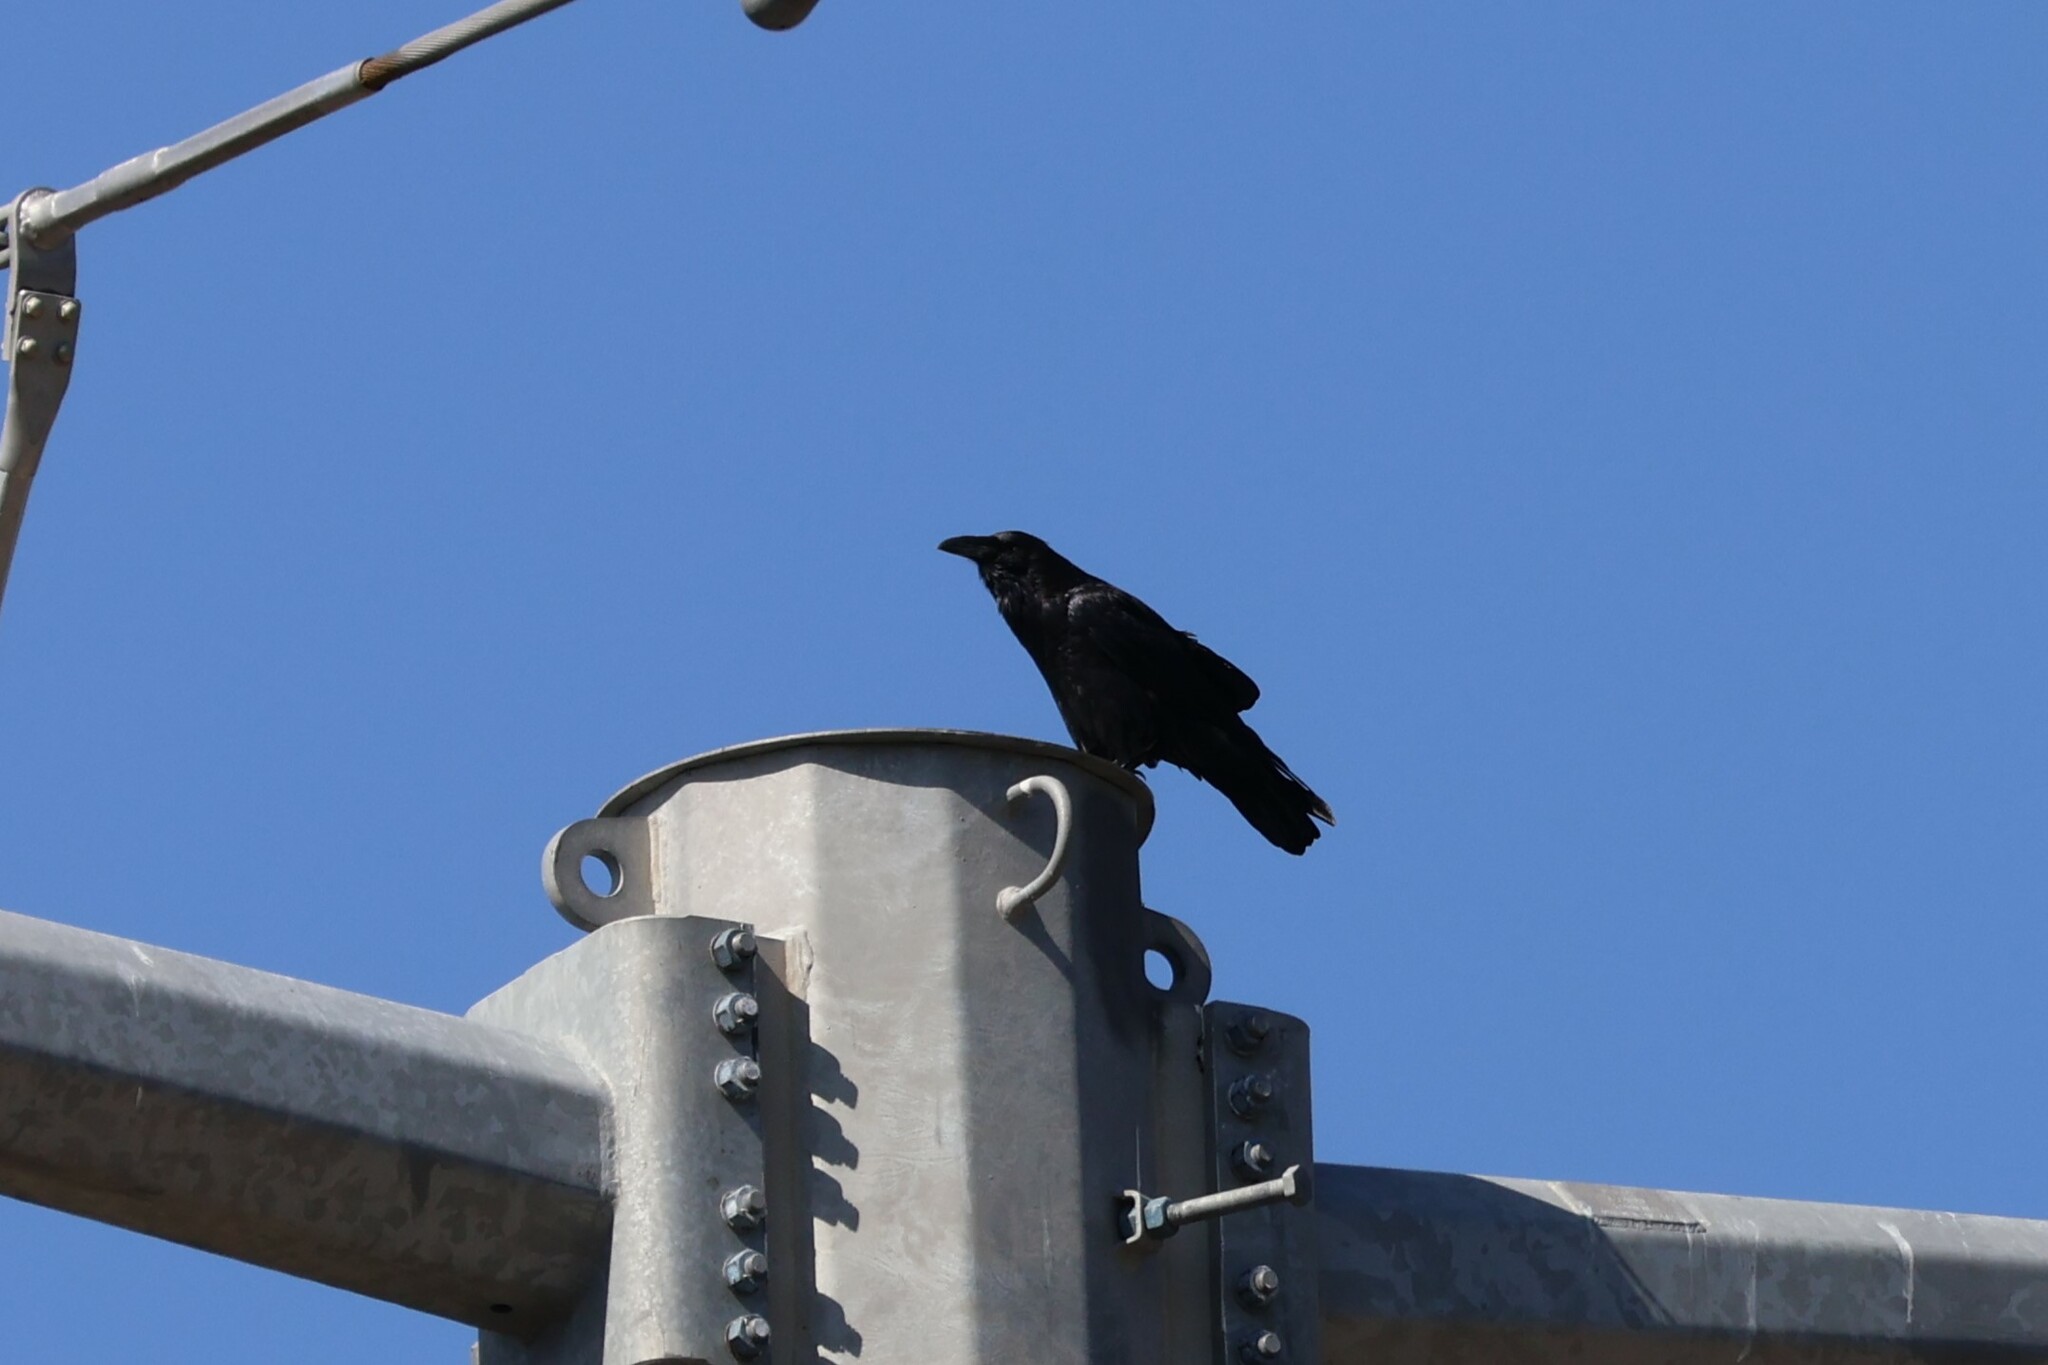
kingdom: Animalia
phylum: Chordata
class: Aves
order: Passeriformes
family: Corvidae
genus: Corvus
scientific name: Corvus corax
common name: Common raven
